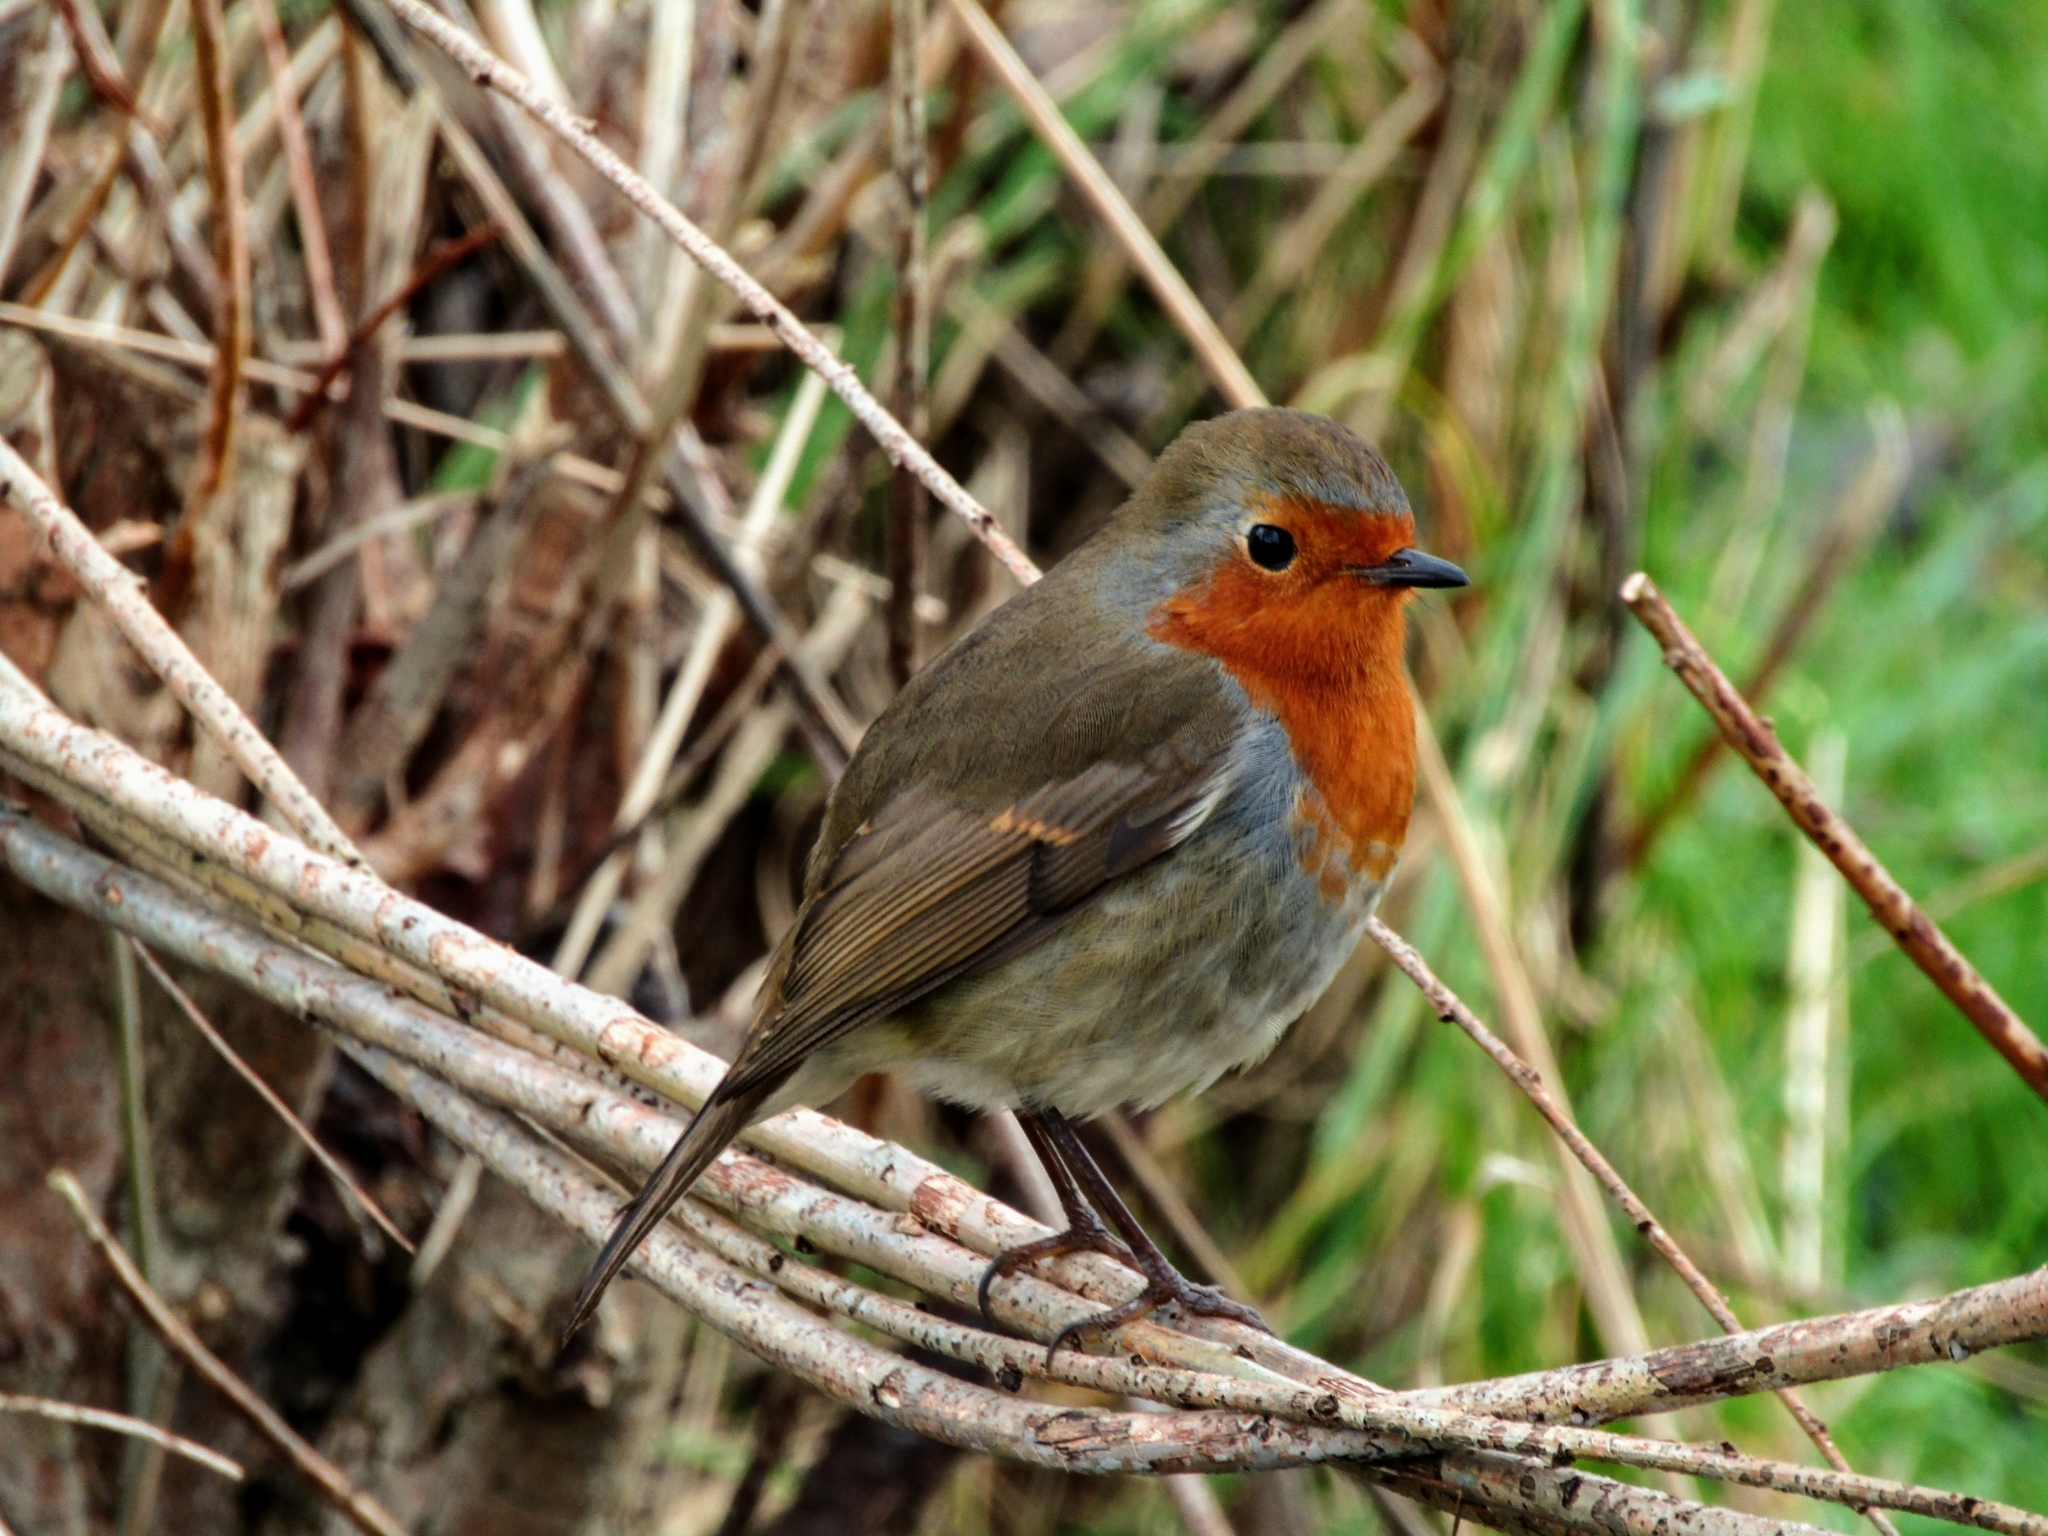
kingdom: Animalia
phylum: Chordata
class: Aves
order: Passeriformes
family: Muscicapidae
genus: Erithacus
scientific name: Erithacus rubecula
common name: European robin
